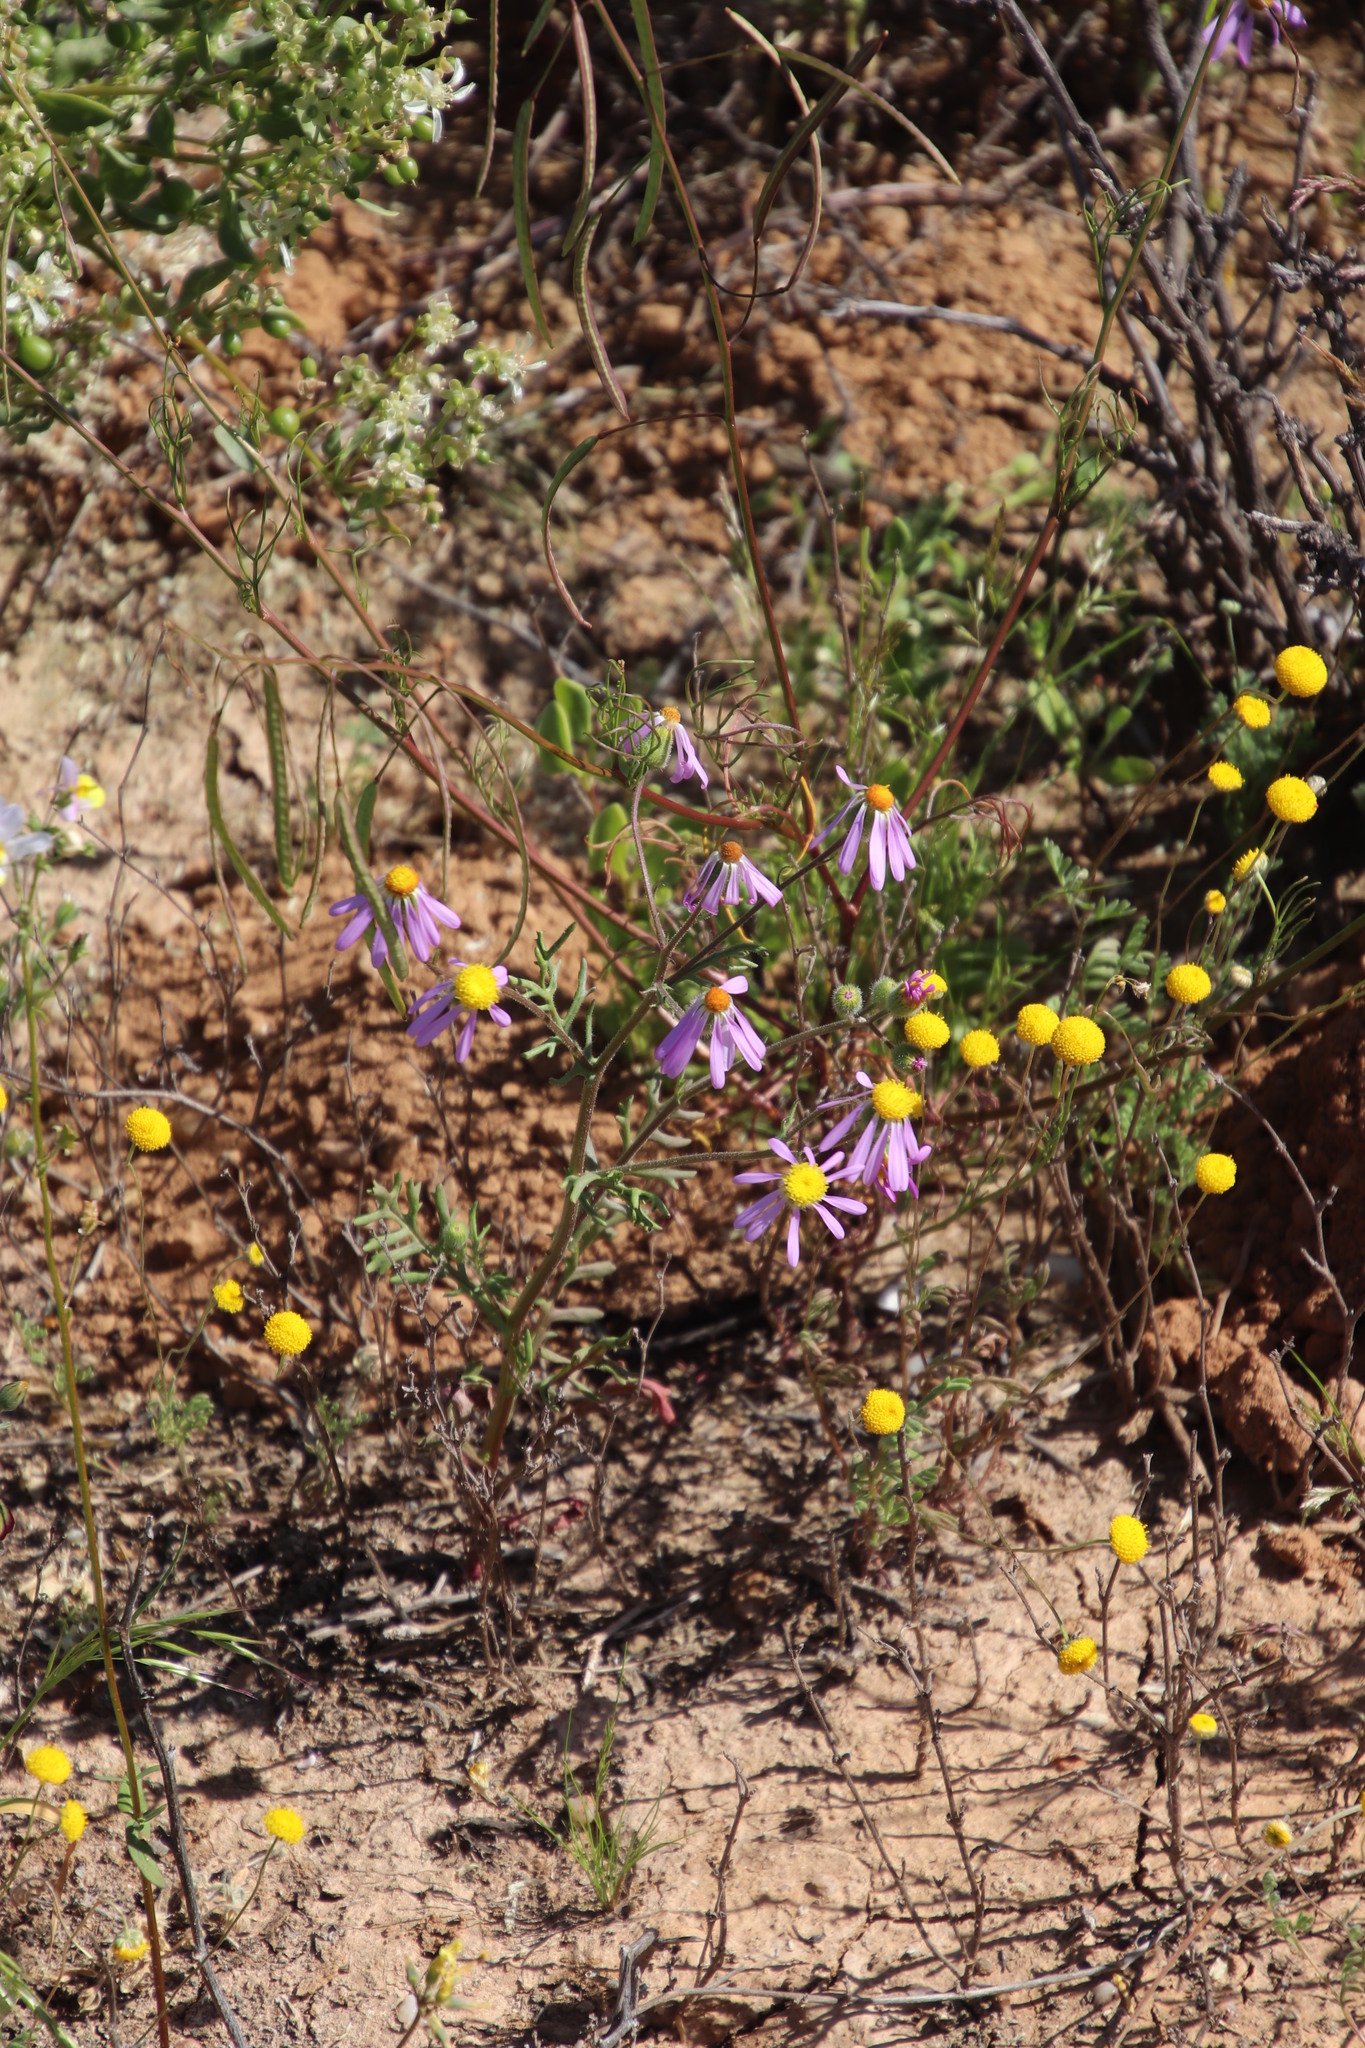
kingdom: Plantae
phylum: Tracheophyta
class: Magnoliopsida
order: Asterales
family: Asteraceae
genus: Senecio
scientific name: Senecio arenarius
